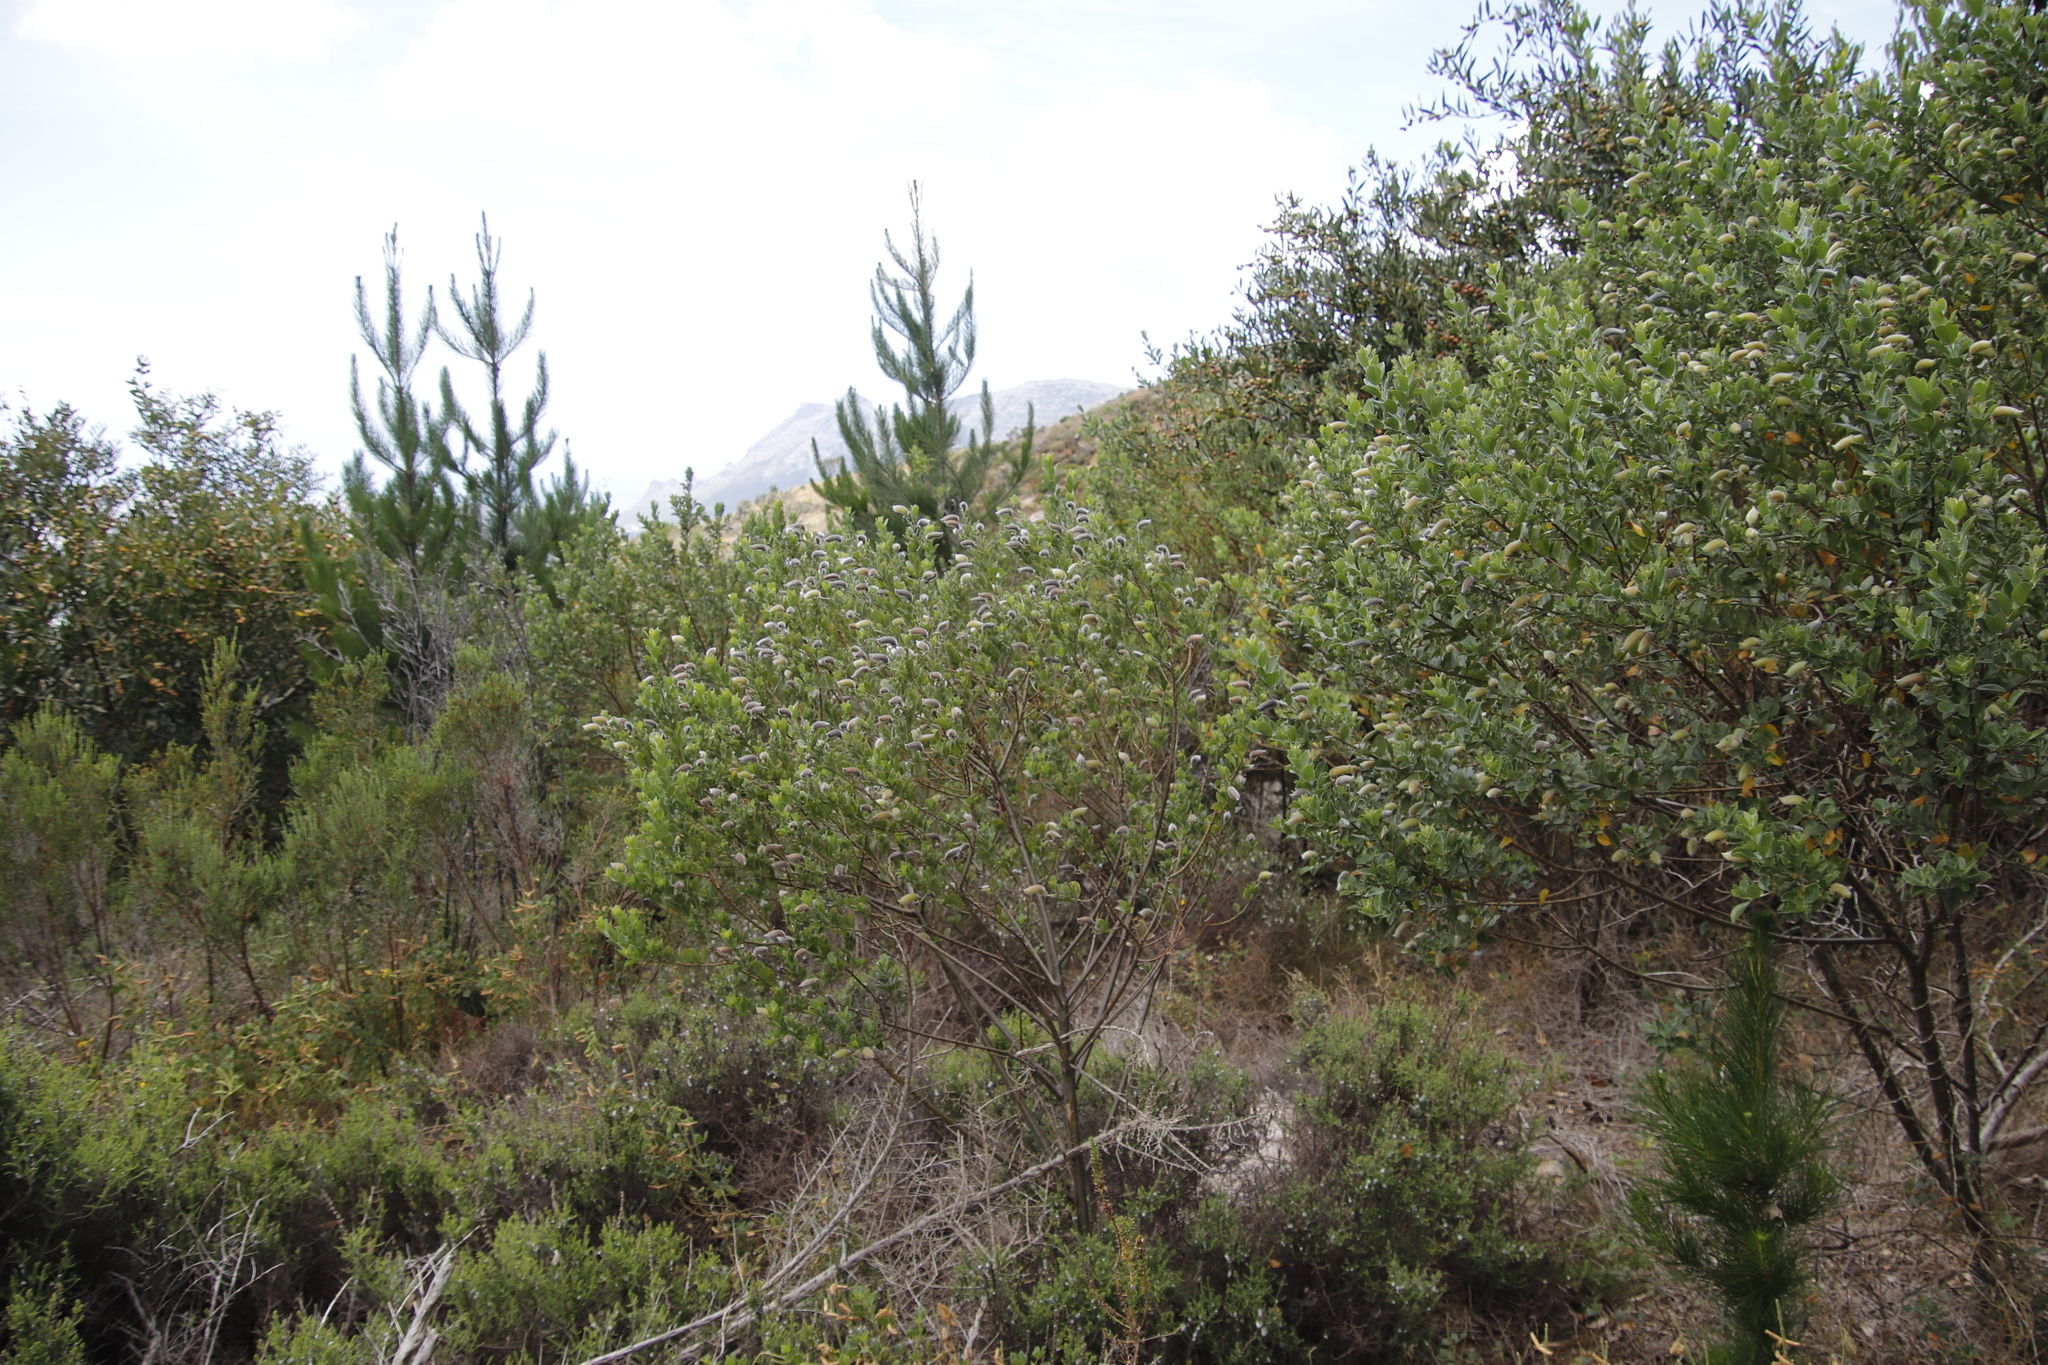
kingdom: Plantae
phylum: Tracheophyta
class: Magnoliopsida
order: Fabales
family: Fabaceae
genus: Podalyria
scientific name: Podalyria calyptrata
